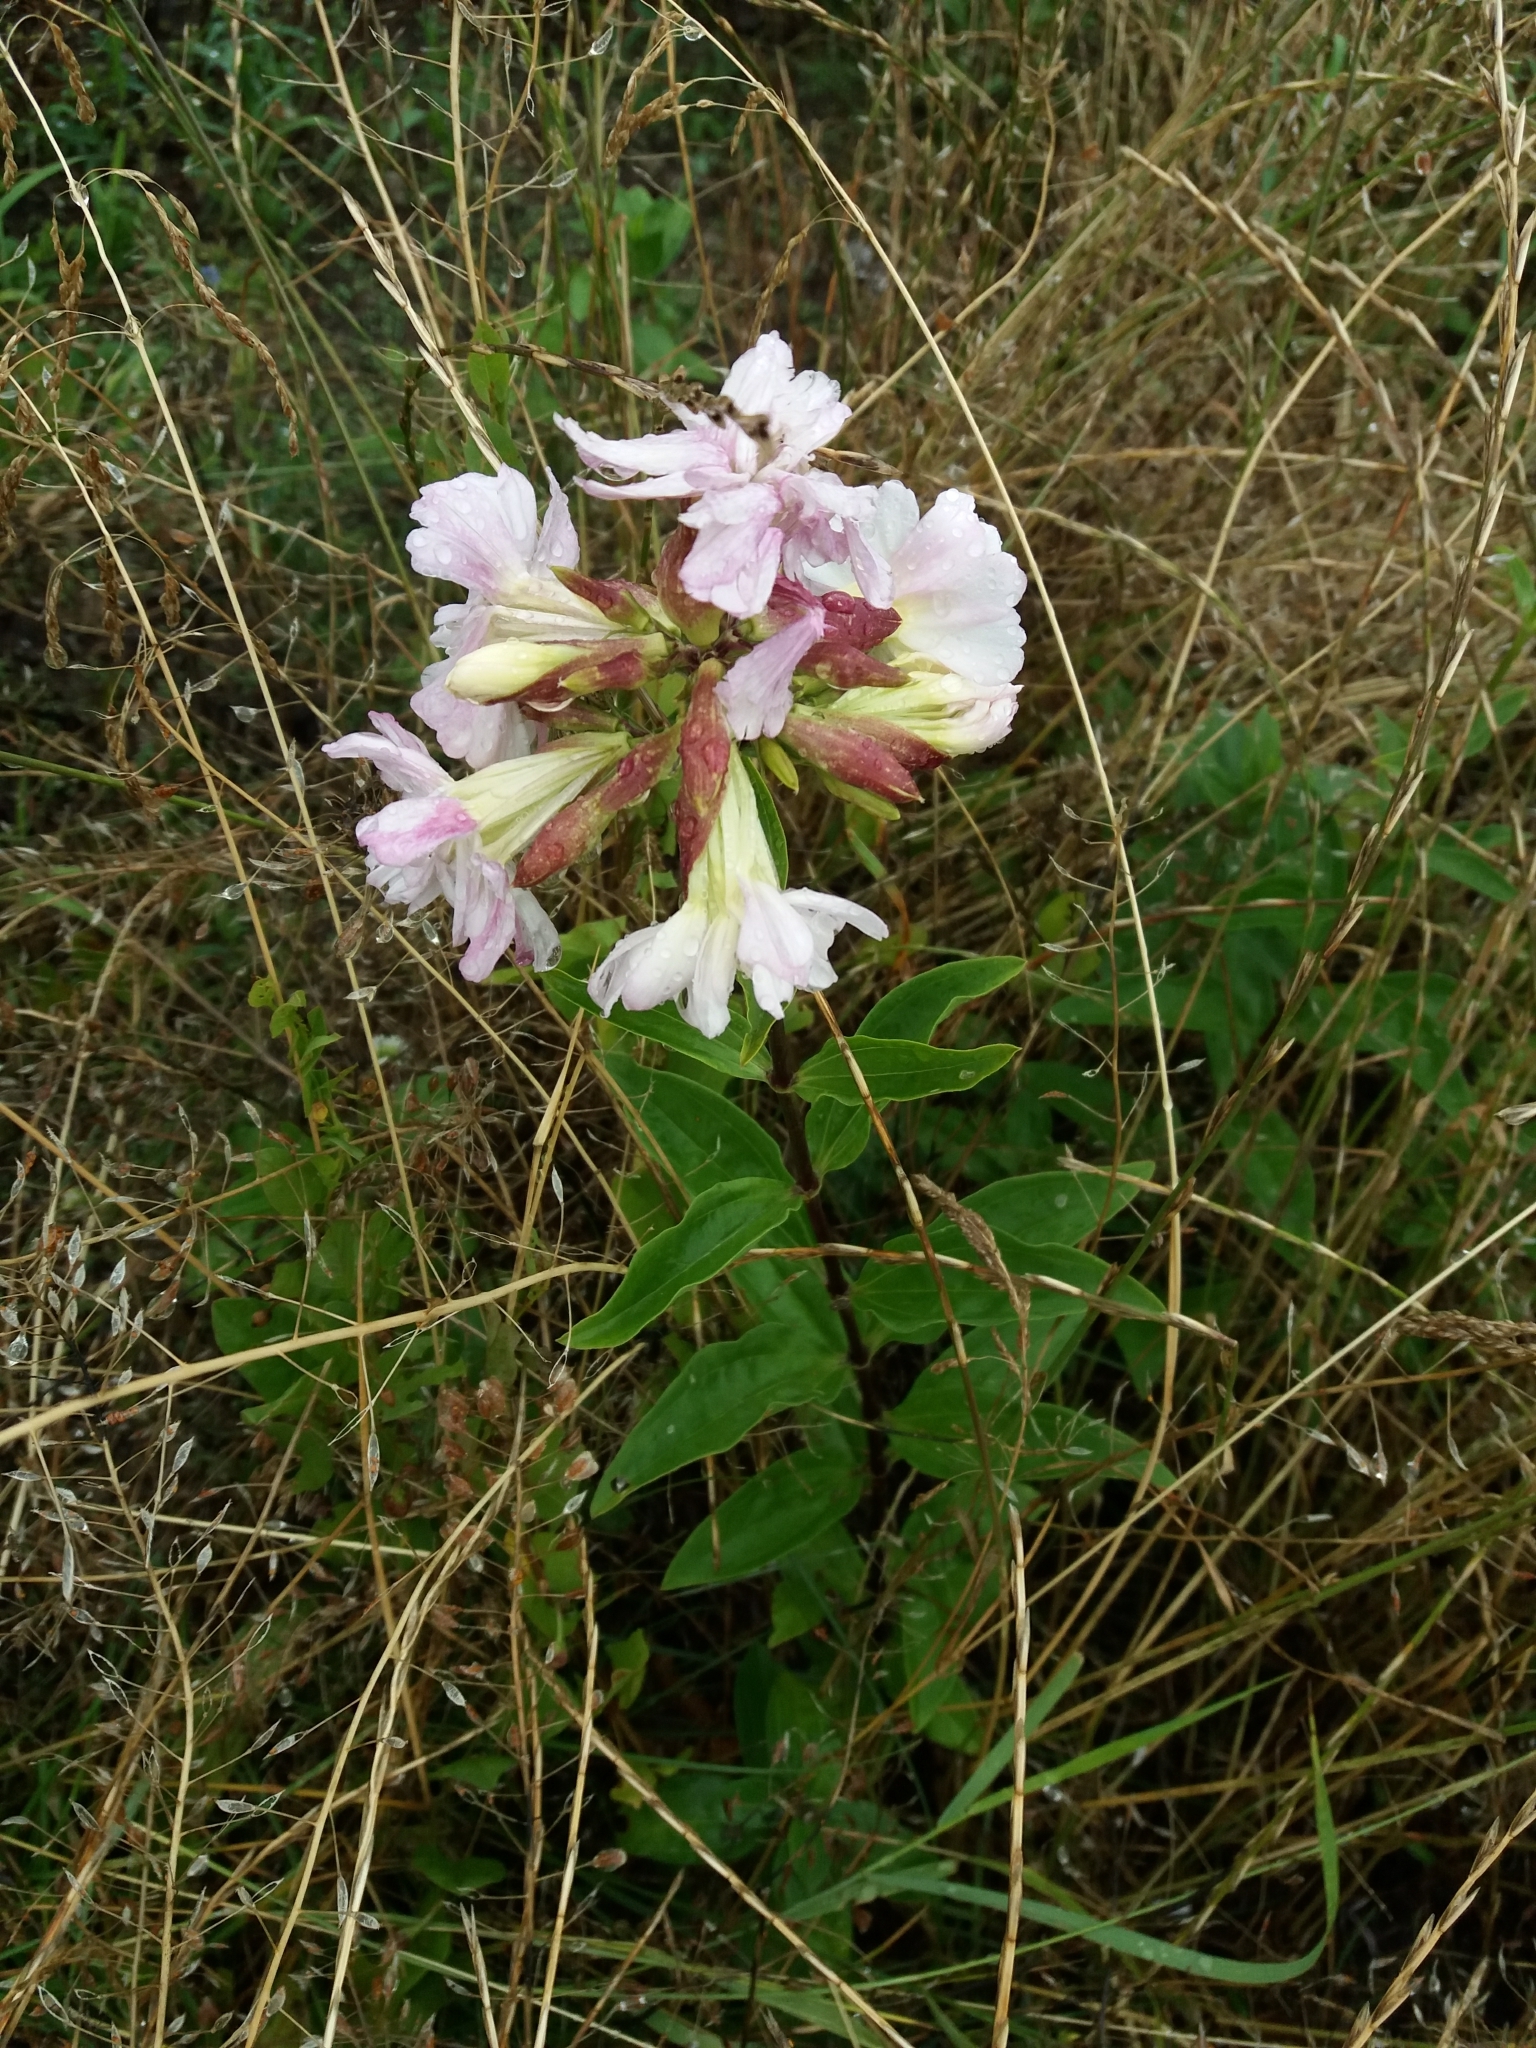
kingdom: Plantae
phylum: Tracheophyta
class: Magnoliopsida
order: Caryophyllales
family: Caryophyllaceae
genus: Saponaria
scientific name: Saponaria officinalis
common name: Soapwort
